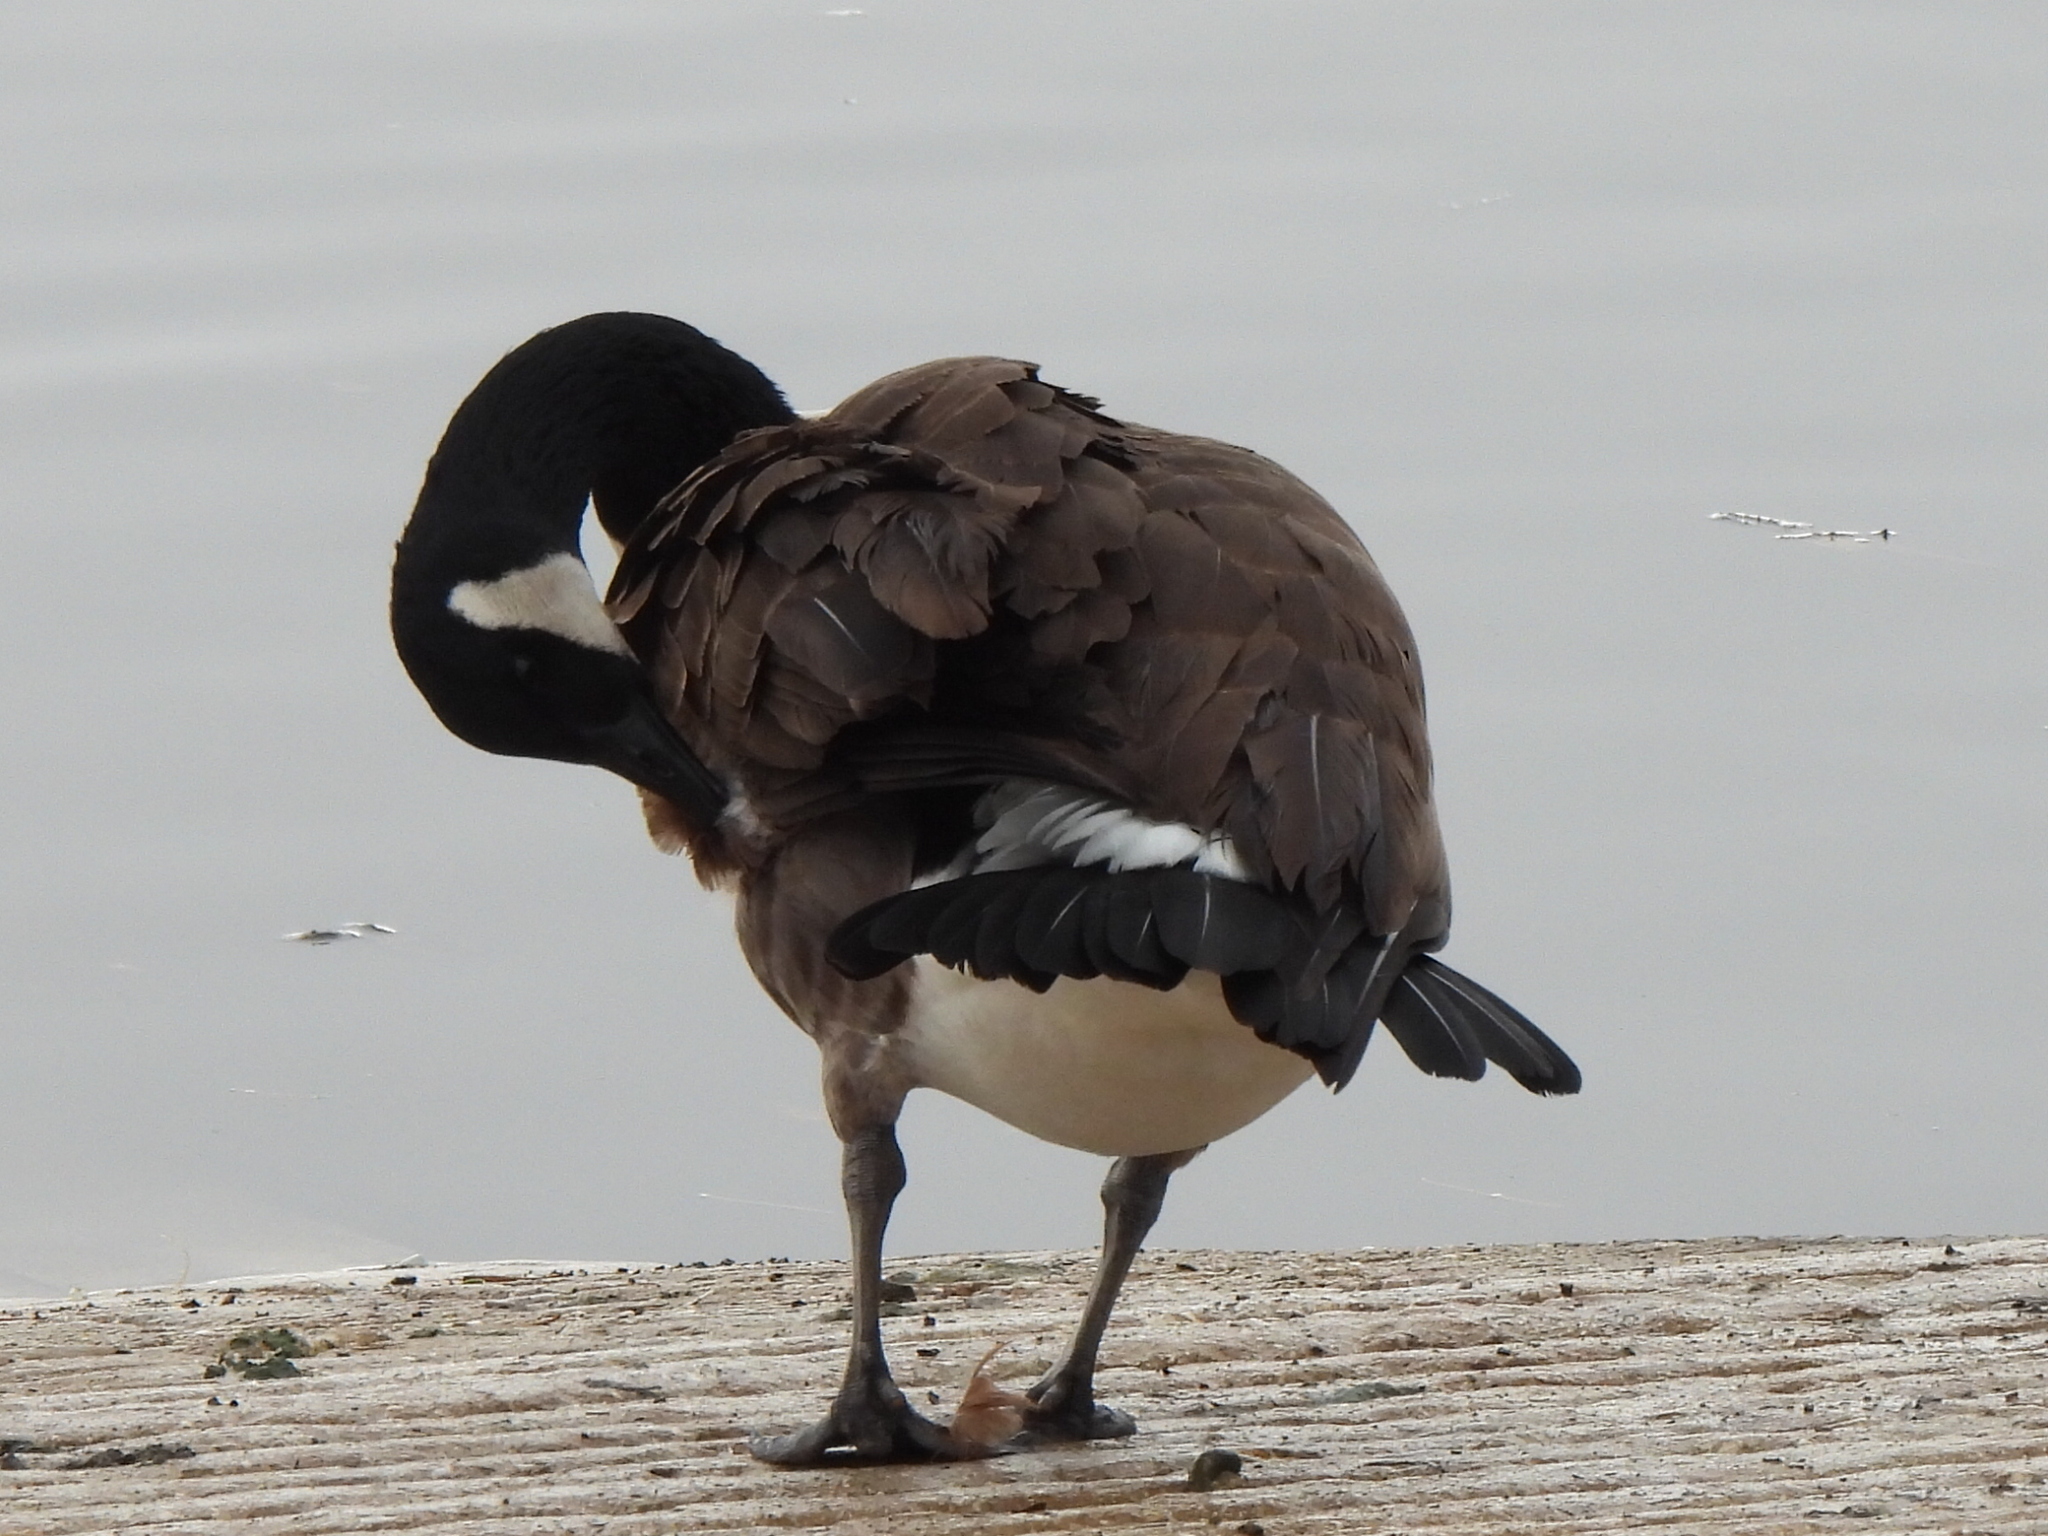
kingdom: Animalia
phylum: Chordata
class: Aves
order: Anseriformes
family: Anatidae
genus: Branta
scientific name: Branta canadensis
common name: Canada goose
